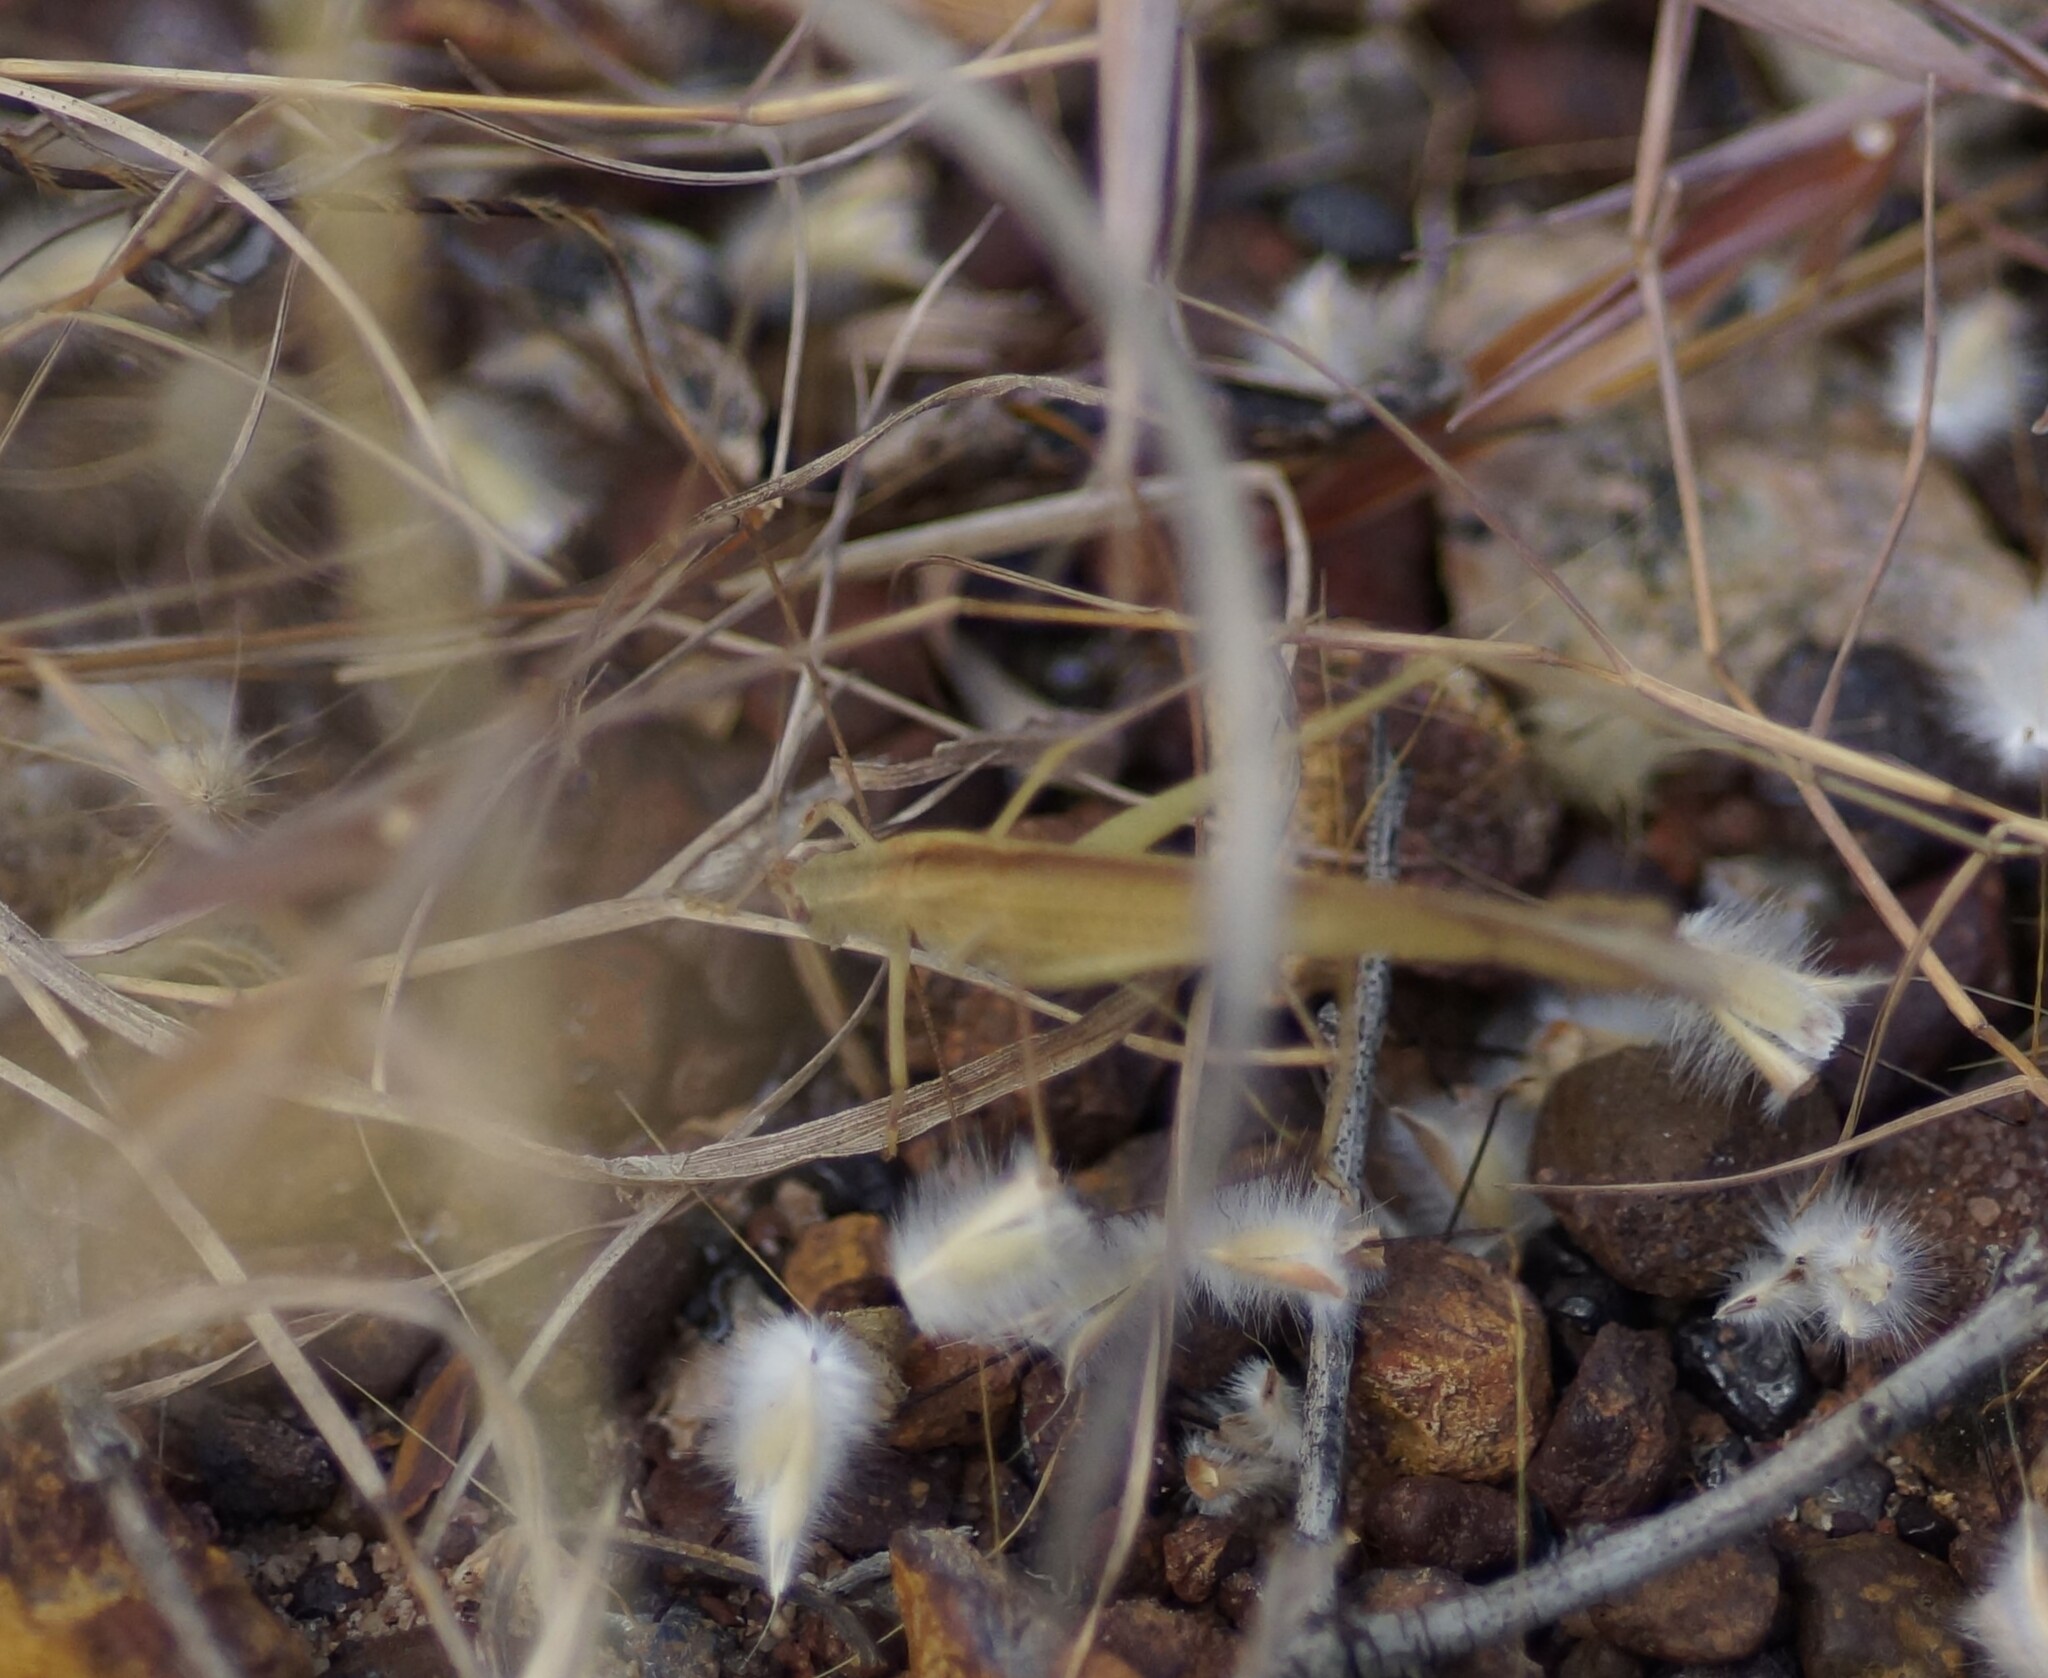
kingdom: Animalia
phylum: Arthropoda
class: Insecta
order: Orthoptera
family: Tettigoniidae
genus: Phaneroptera
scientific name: Phaneroptera gracilis
